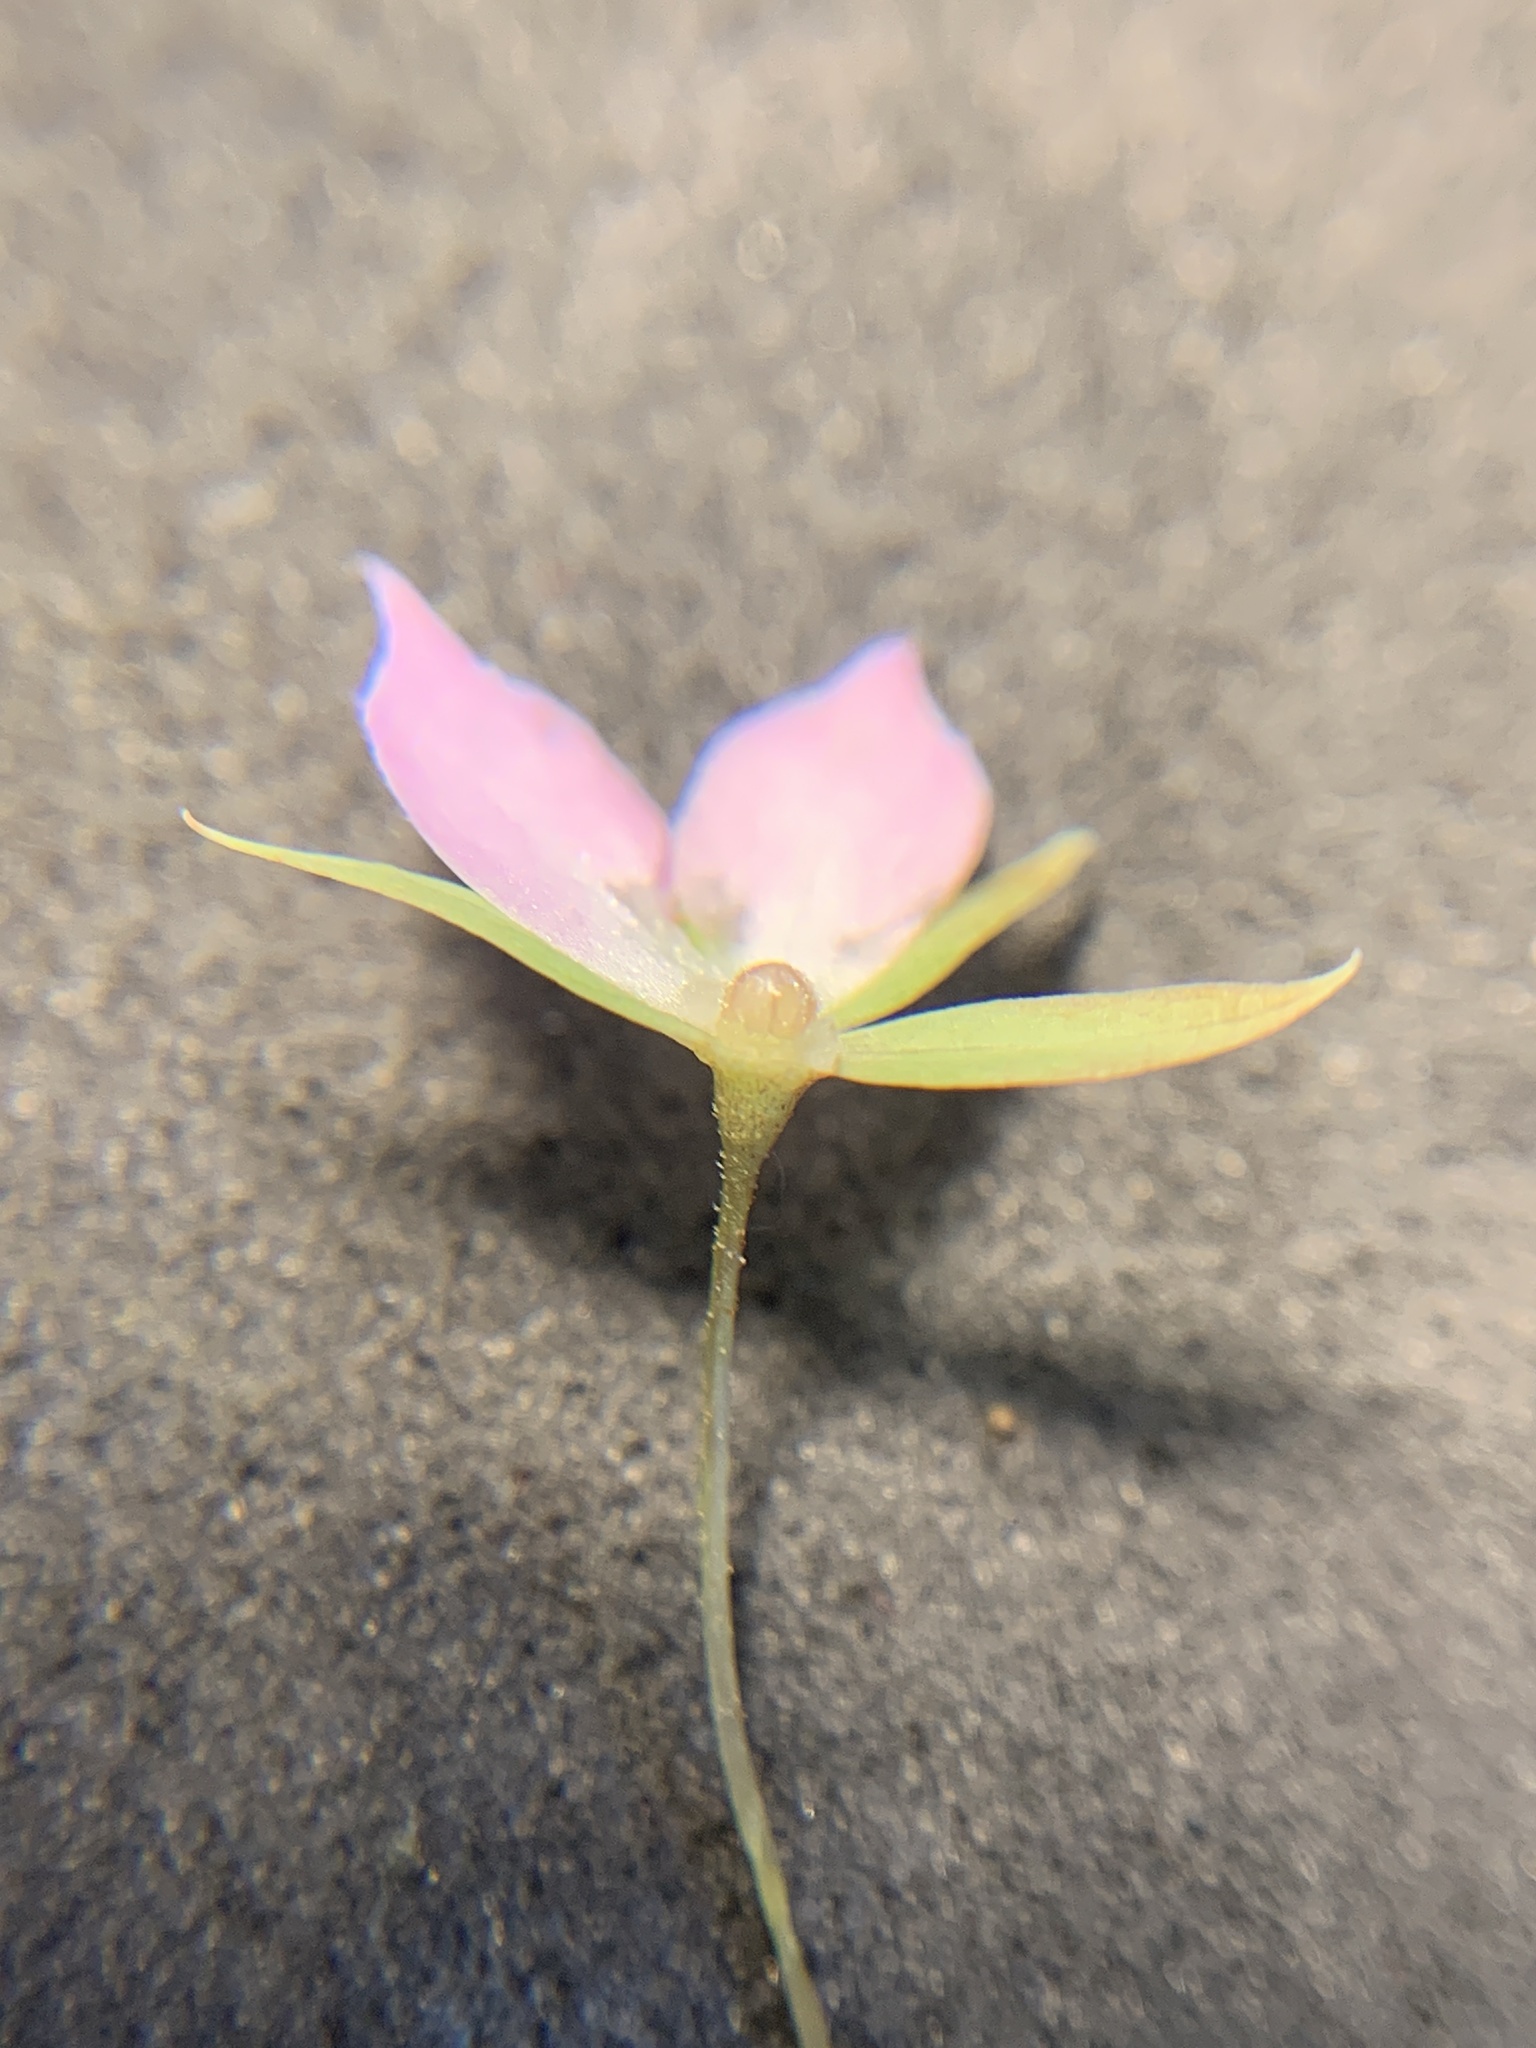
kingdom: Plantae
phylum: Tracheophyta
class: Magnoliopsida
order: Ericales
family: Primulaceae
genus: Lysimachia
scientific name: Lysimachia latifolia
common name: Pacific starflower
